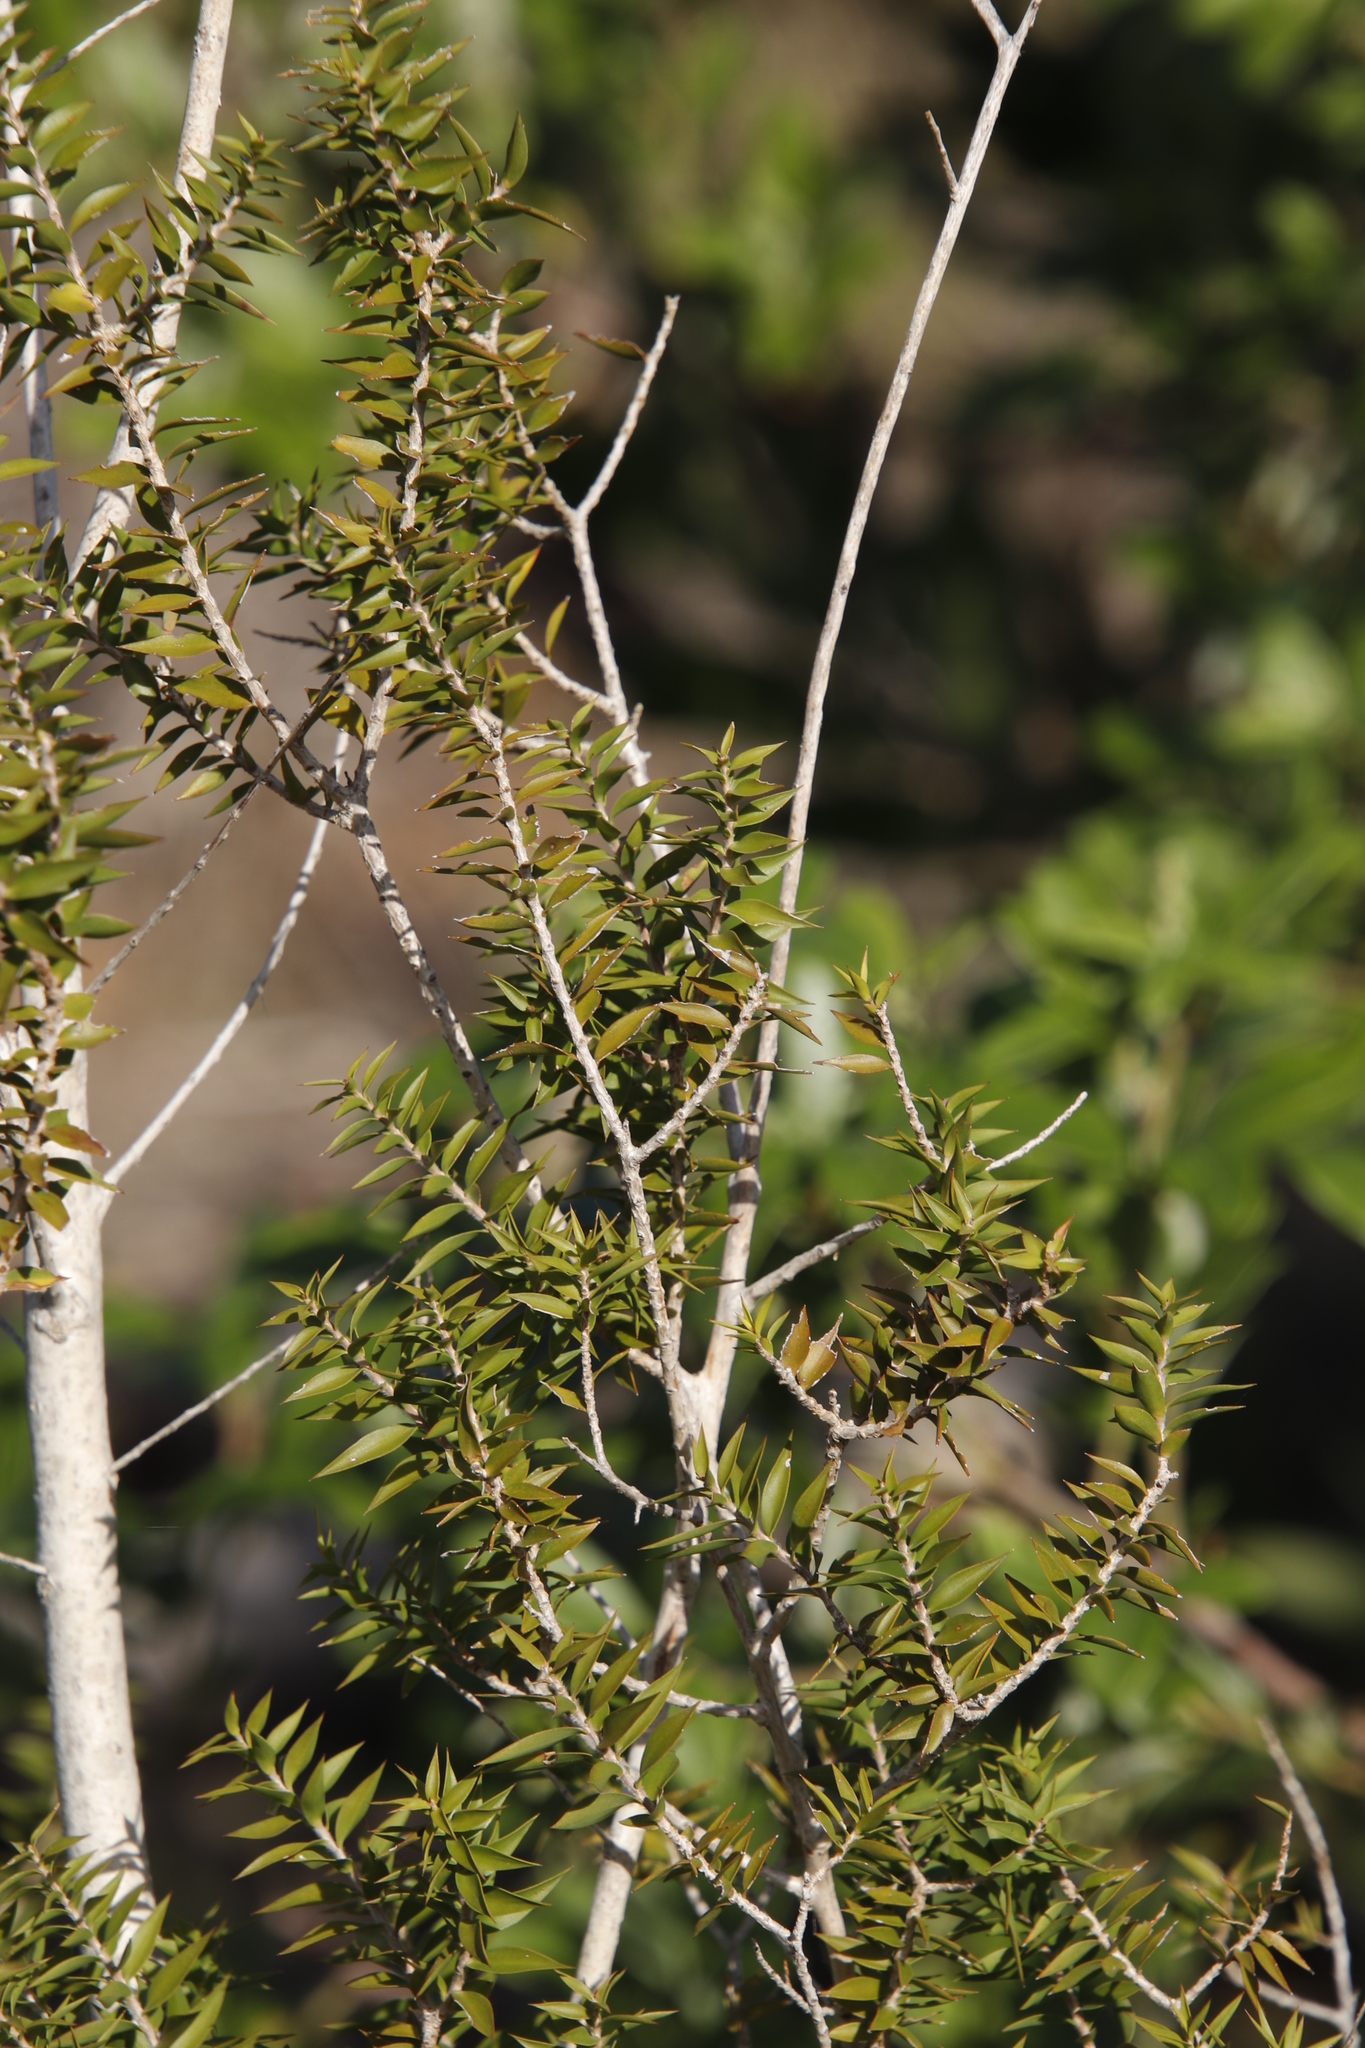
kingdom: Plantae
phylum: Tracheophyta
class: Magnoliopsida
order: Myrtales
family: Myrtaceae
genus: Melaleuca
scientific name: Melaleuca styphelioides
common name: Prickly paperbark
